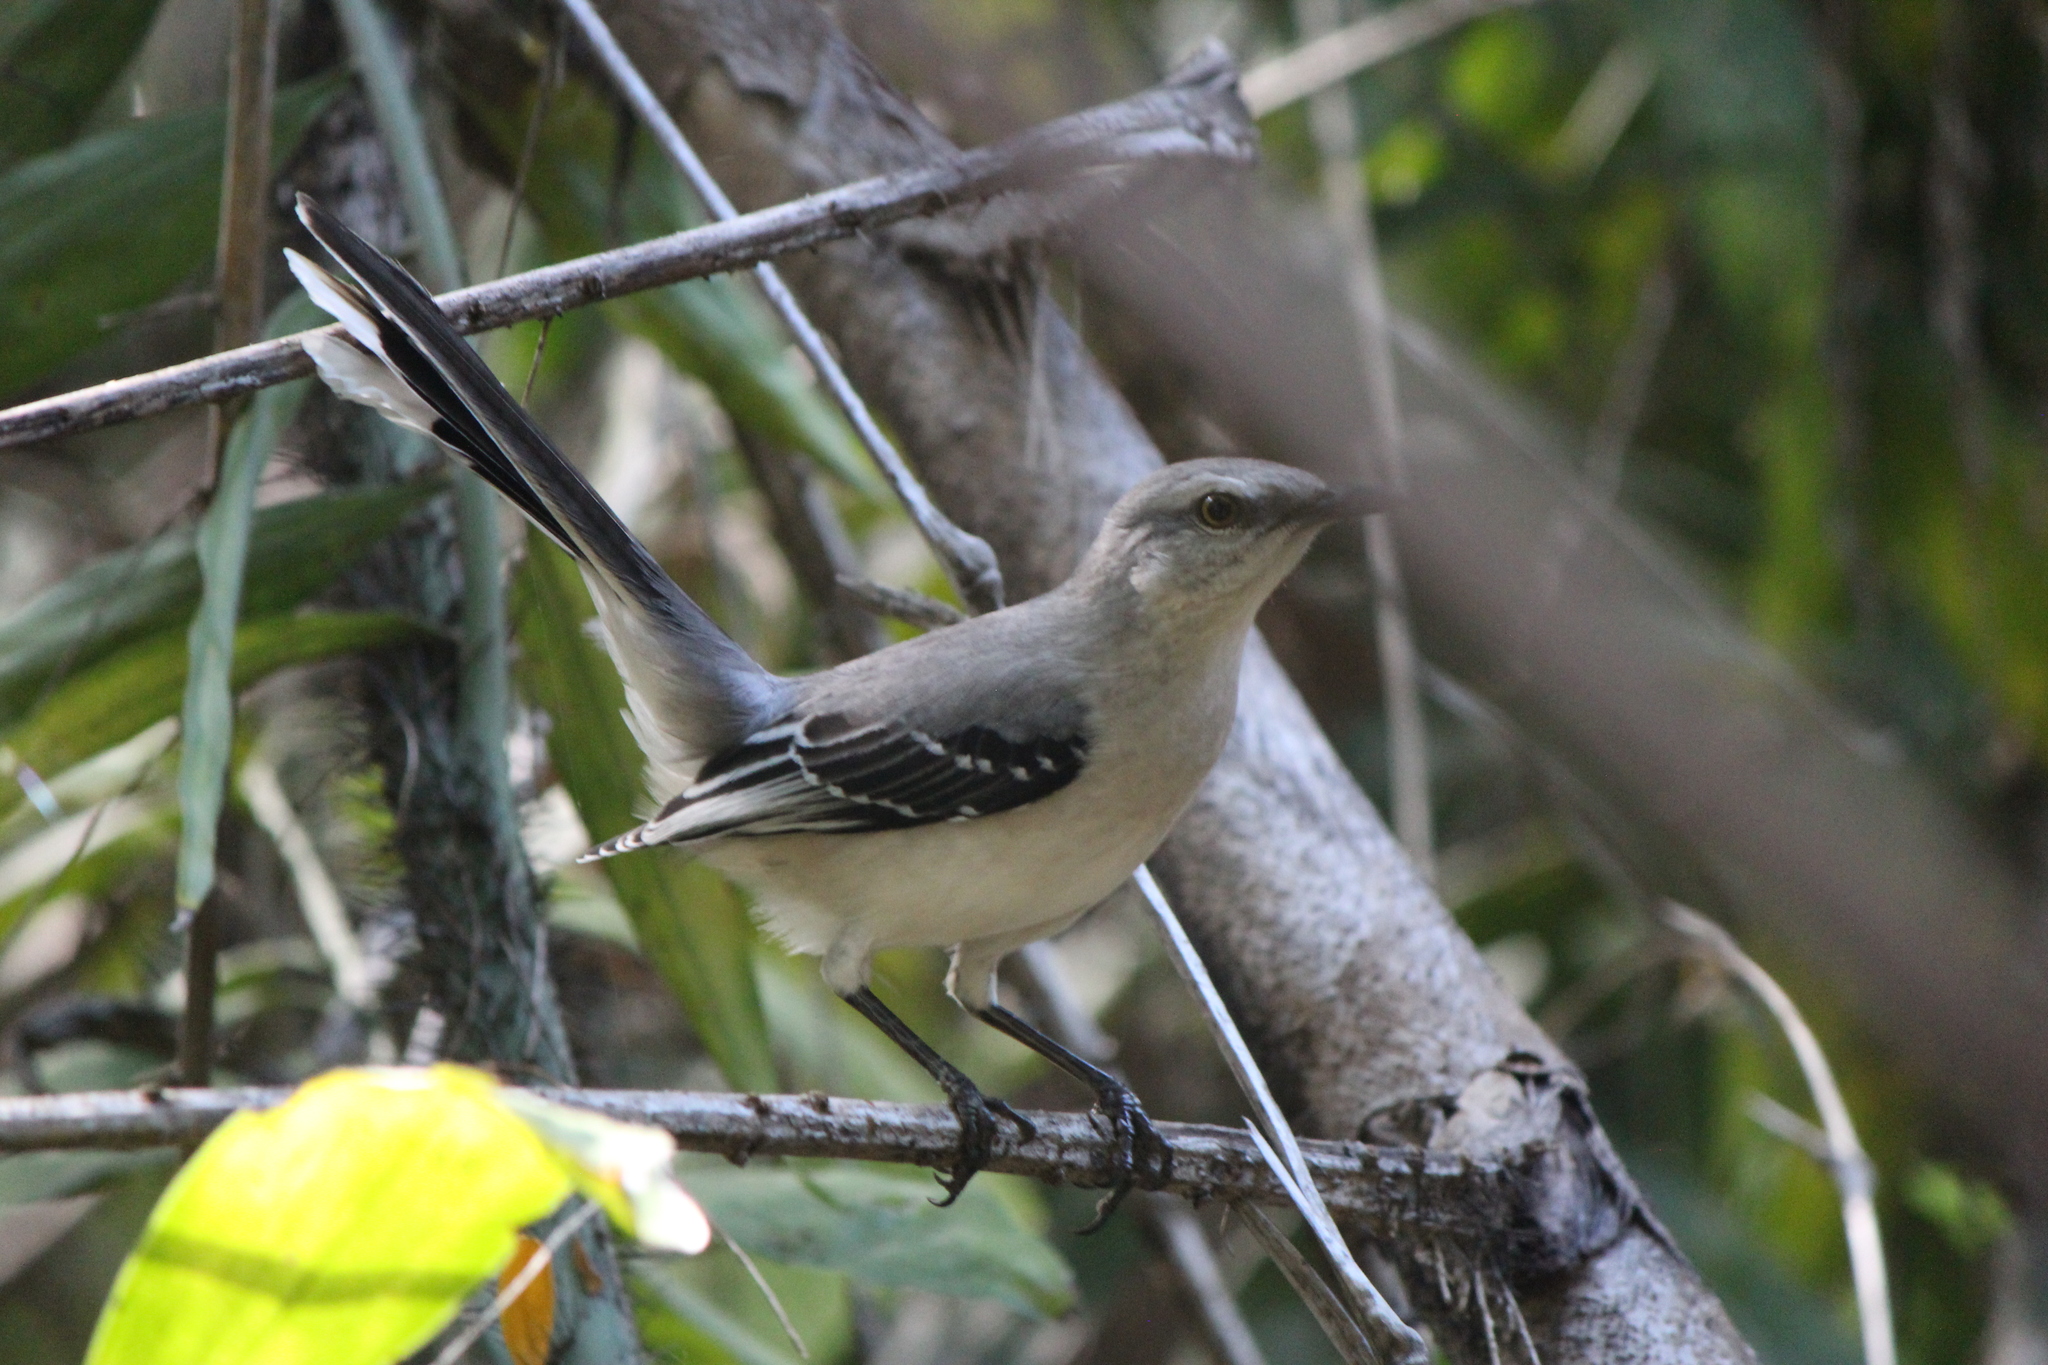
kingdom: Animalia
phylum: Chordata
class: Aves
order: Passeriformes
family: Mimidae
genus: Mimus
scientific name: Mimus gilvus
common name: Tropical mockingbird
